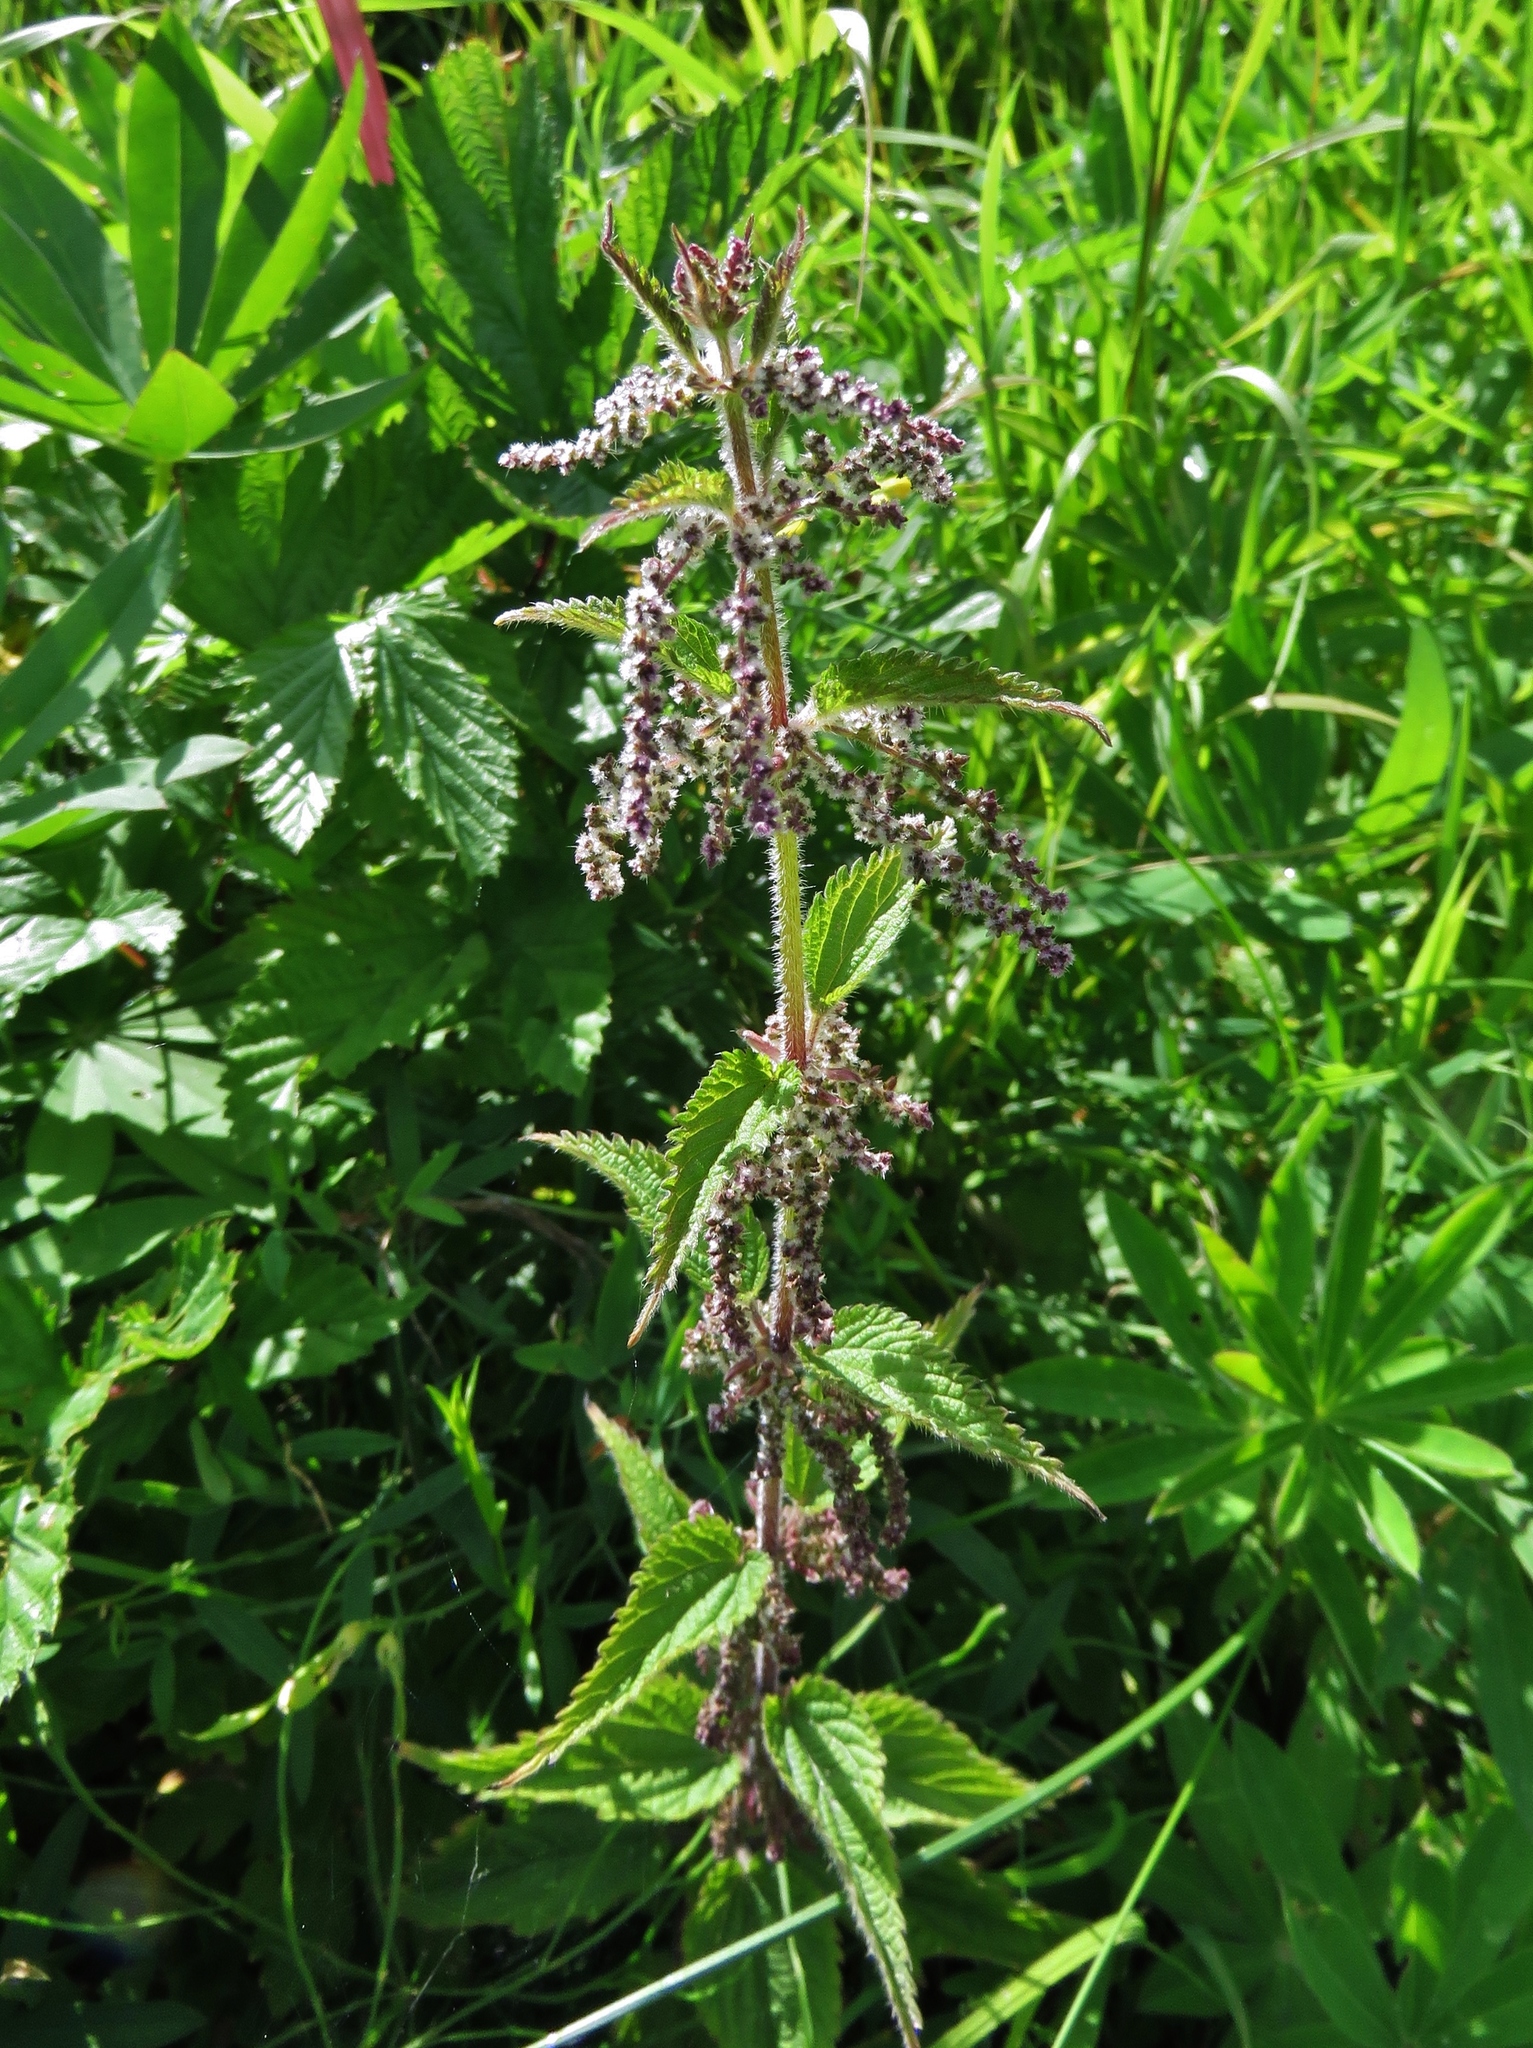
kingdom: Plantae
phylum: Tracheophyta
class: Magnoliopsida
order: Rosales
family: Urticaceae
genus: Urtica
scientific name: Urtica dioica
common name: Common nettle
